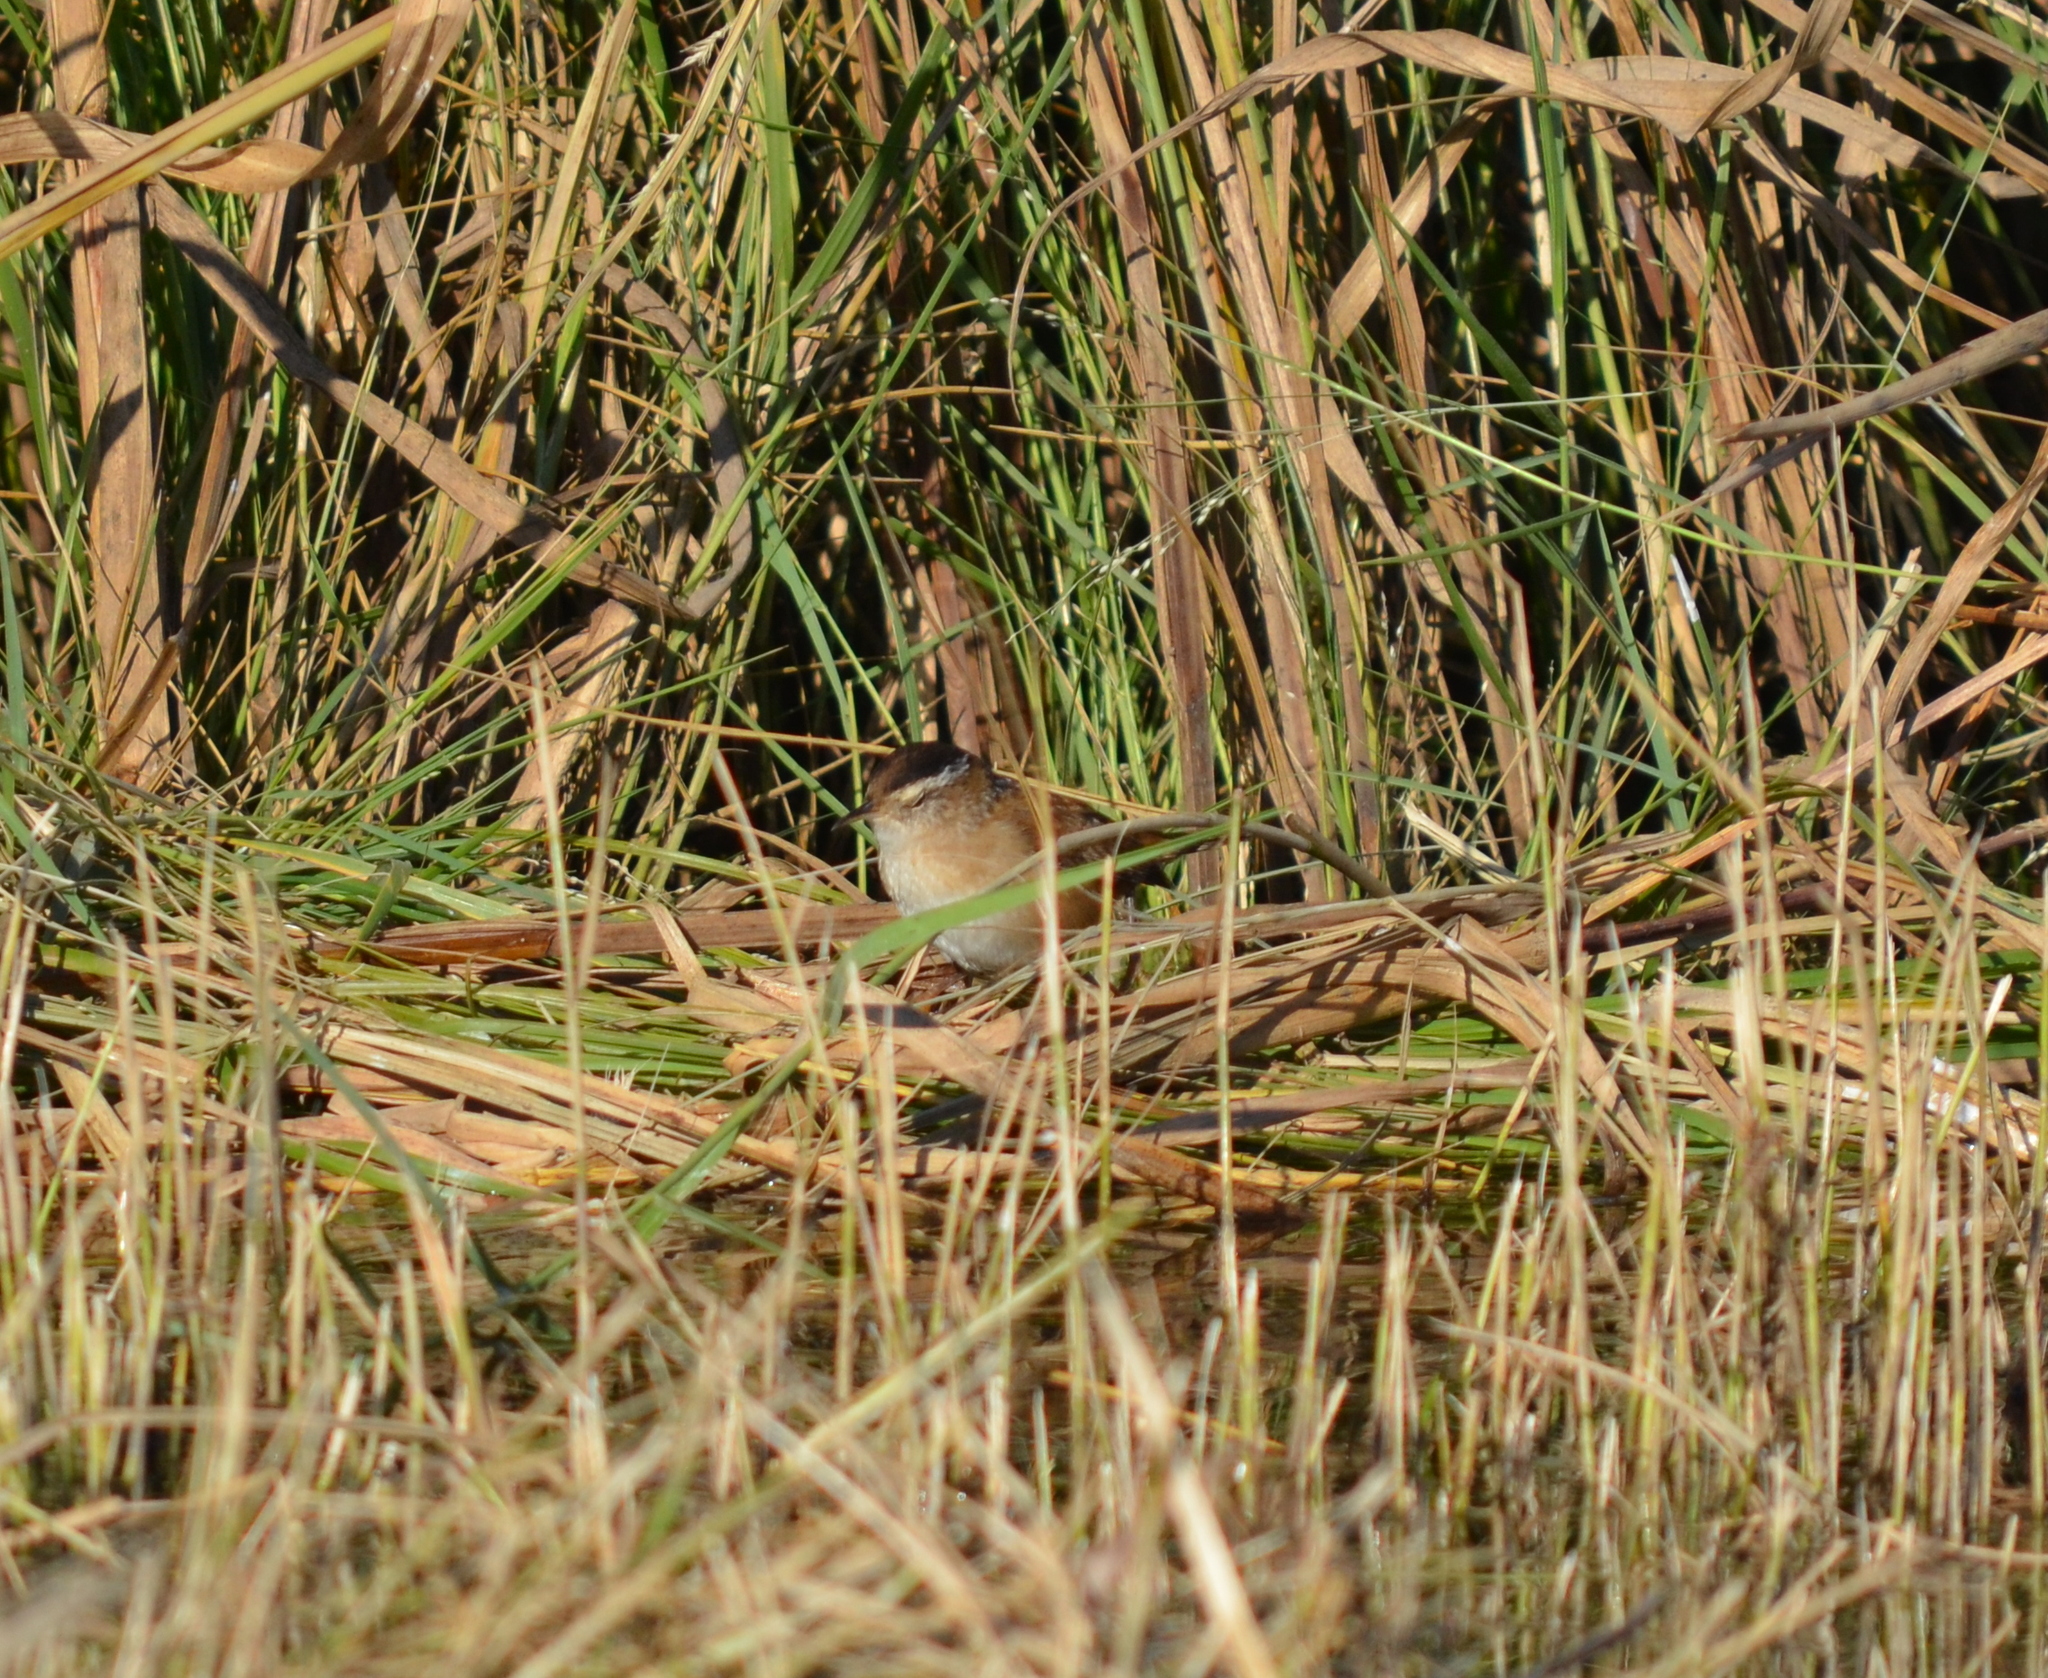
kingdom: Animalia
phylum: Chordata
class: Aves
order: Passeriformes
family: Troglodytidae
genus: Cistothorus
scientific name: Cistothorus palustris
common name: Marsh wren
